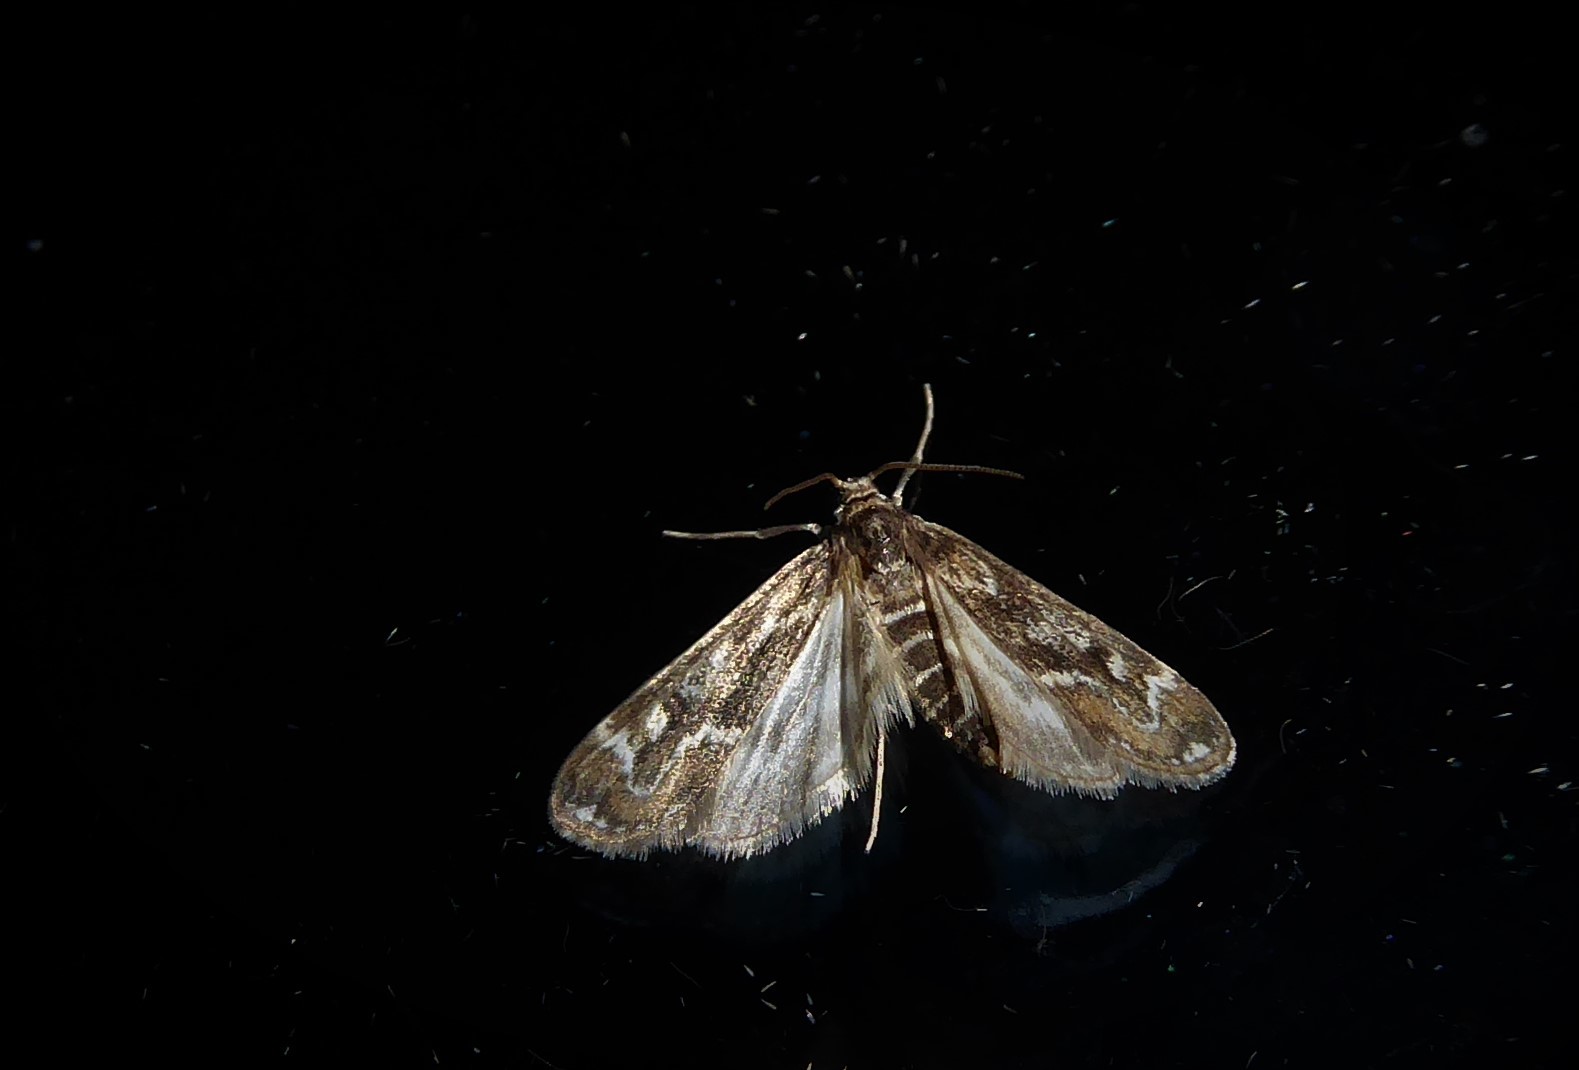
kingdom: Animalia
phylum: Arthropoda
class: Insecta
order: Lepidoptera
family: Crambidae
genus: Hygraula
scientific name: Hygraula nitens
